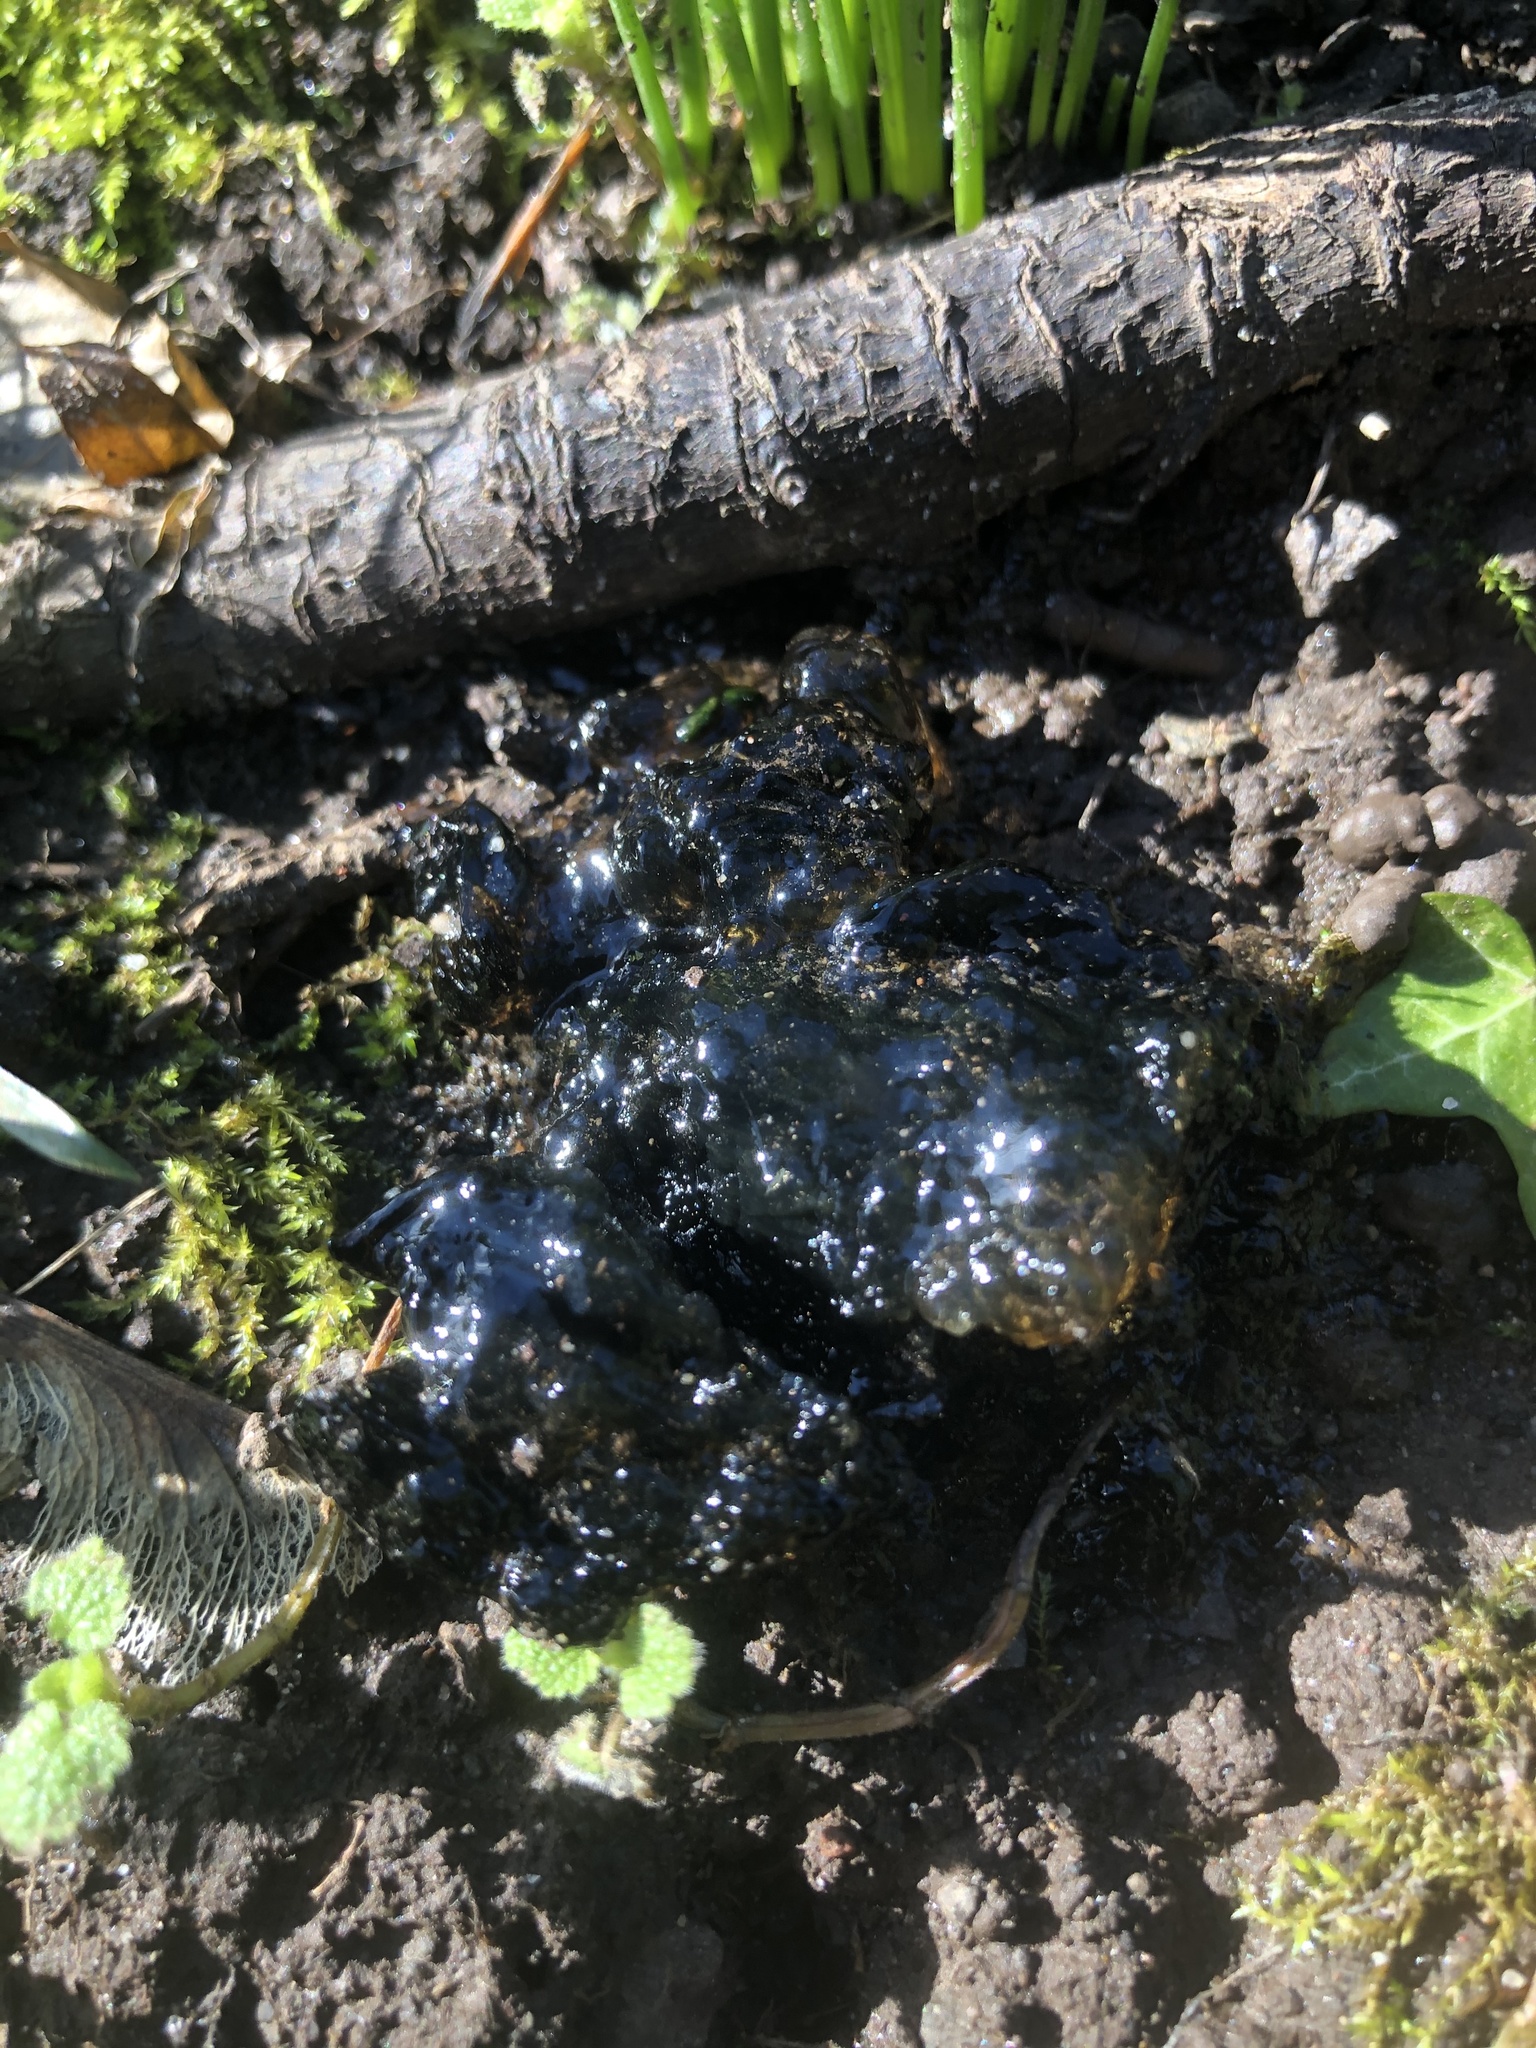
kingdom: Fungi
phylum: Basidiomycota
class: Agaricomycetes
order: Auriculariales
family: Auriculariaceae
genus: Exidia
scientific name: Exidia glandulosa
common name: Witches' butter
